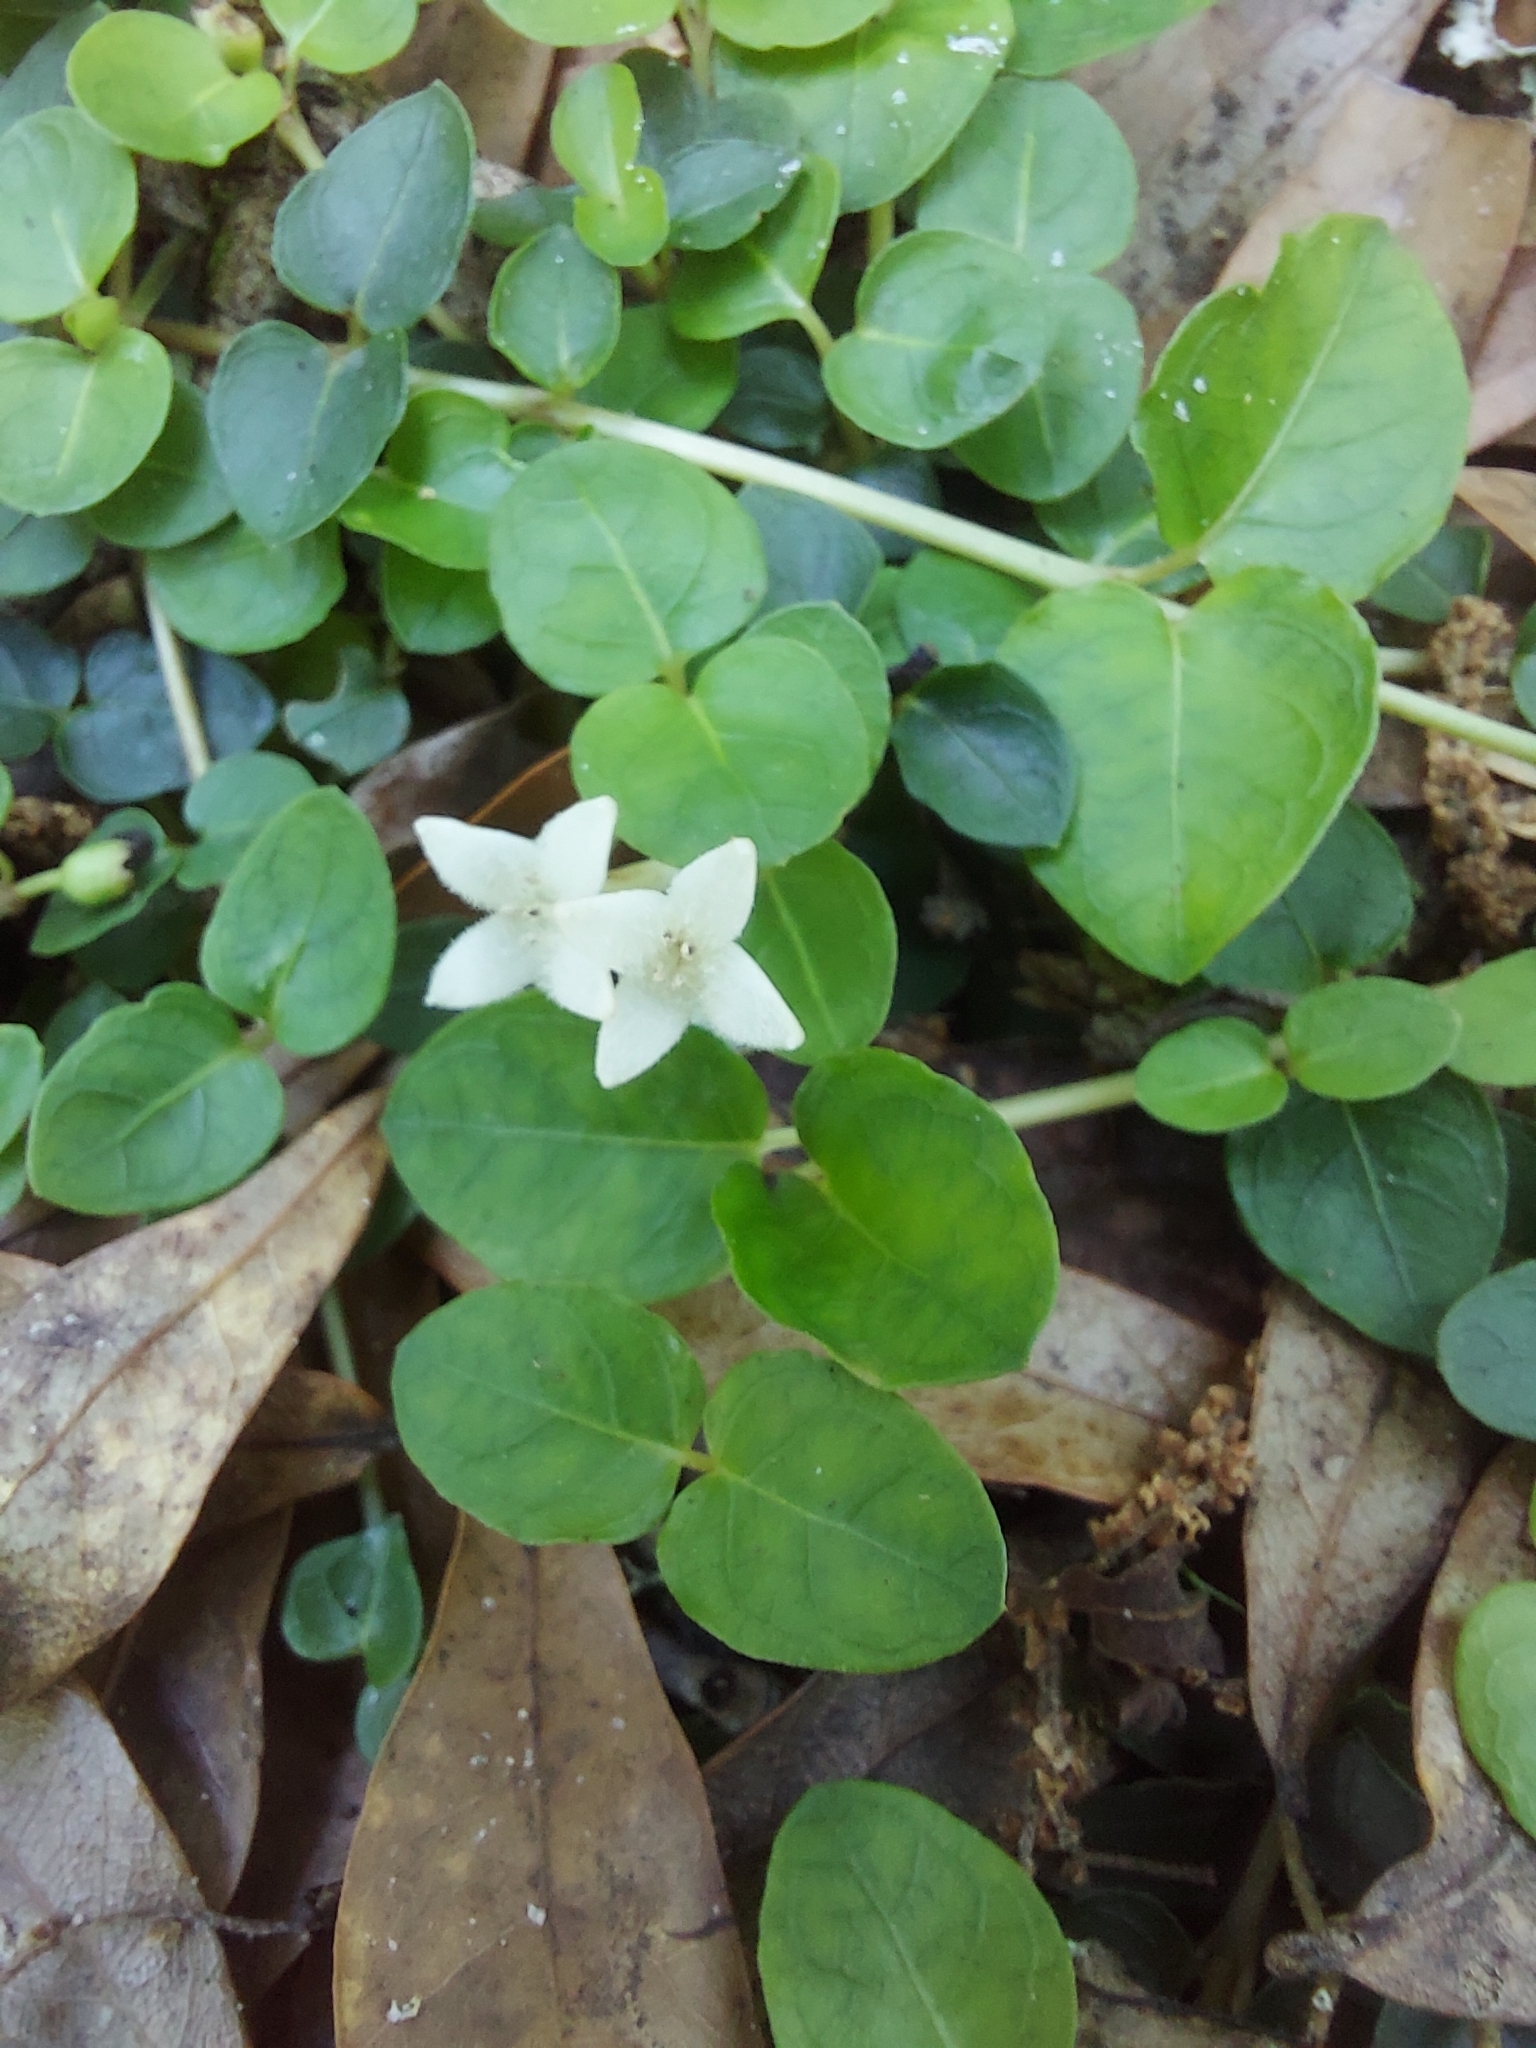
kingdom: Plantae
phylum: Tracheophyta
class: Magnoliopsida
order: Gentianales
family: Rubiaceae
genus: Mitchella
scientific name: Mitchella repens
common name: Partridge-berry
